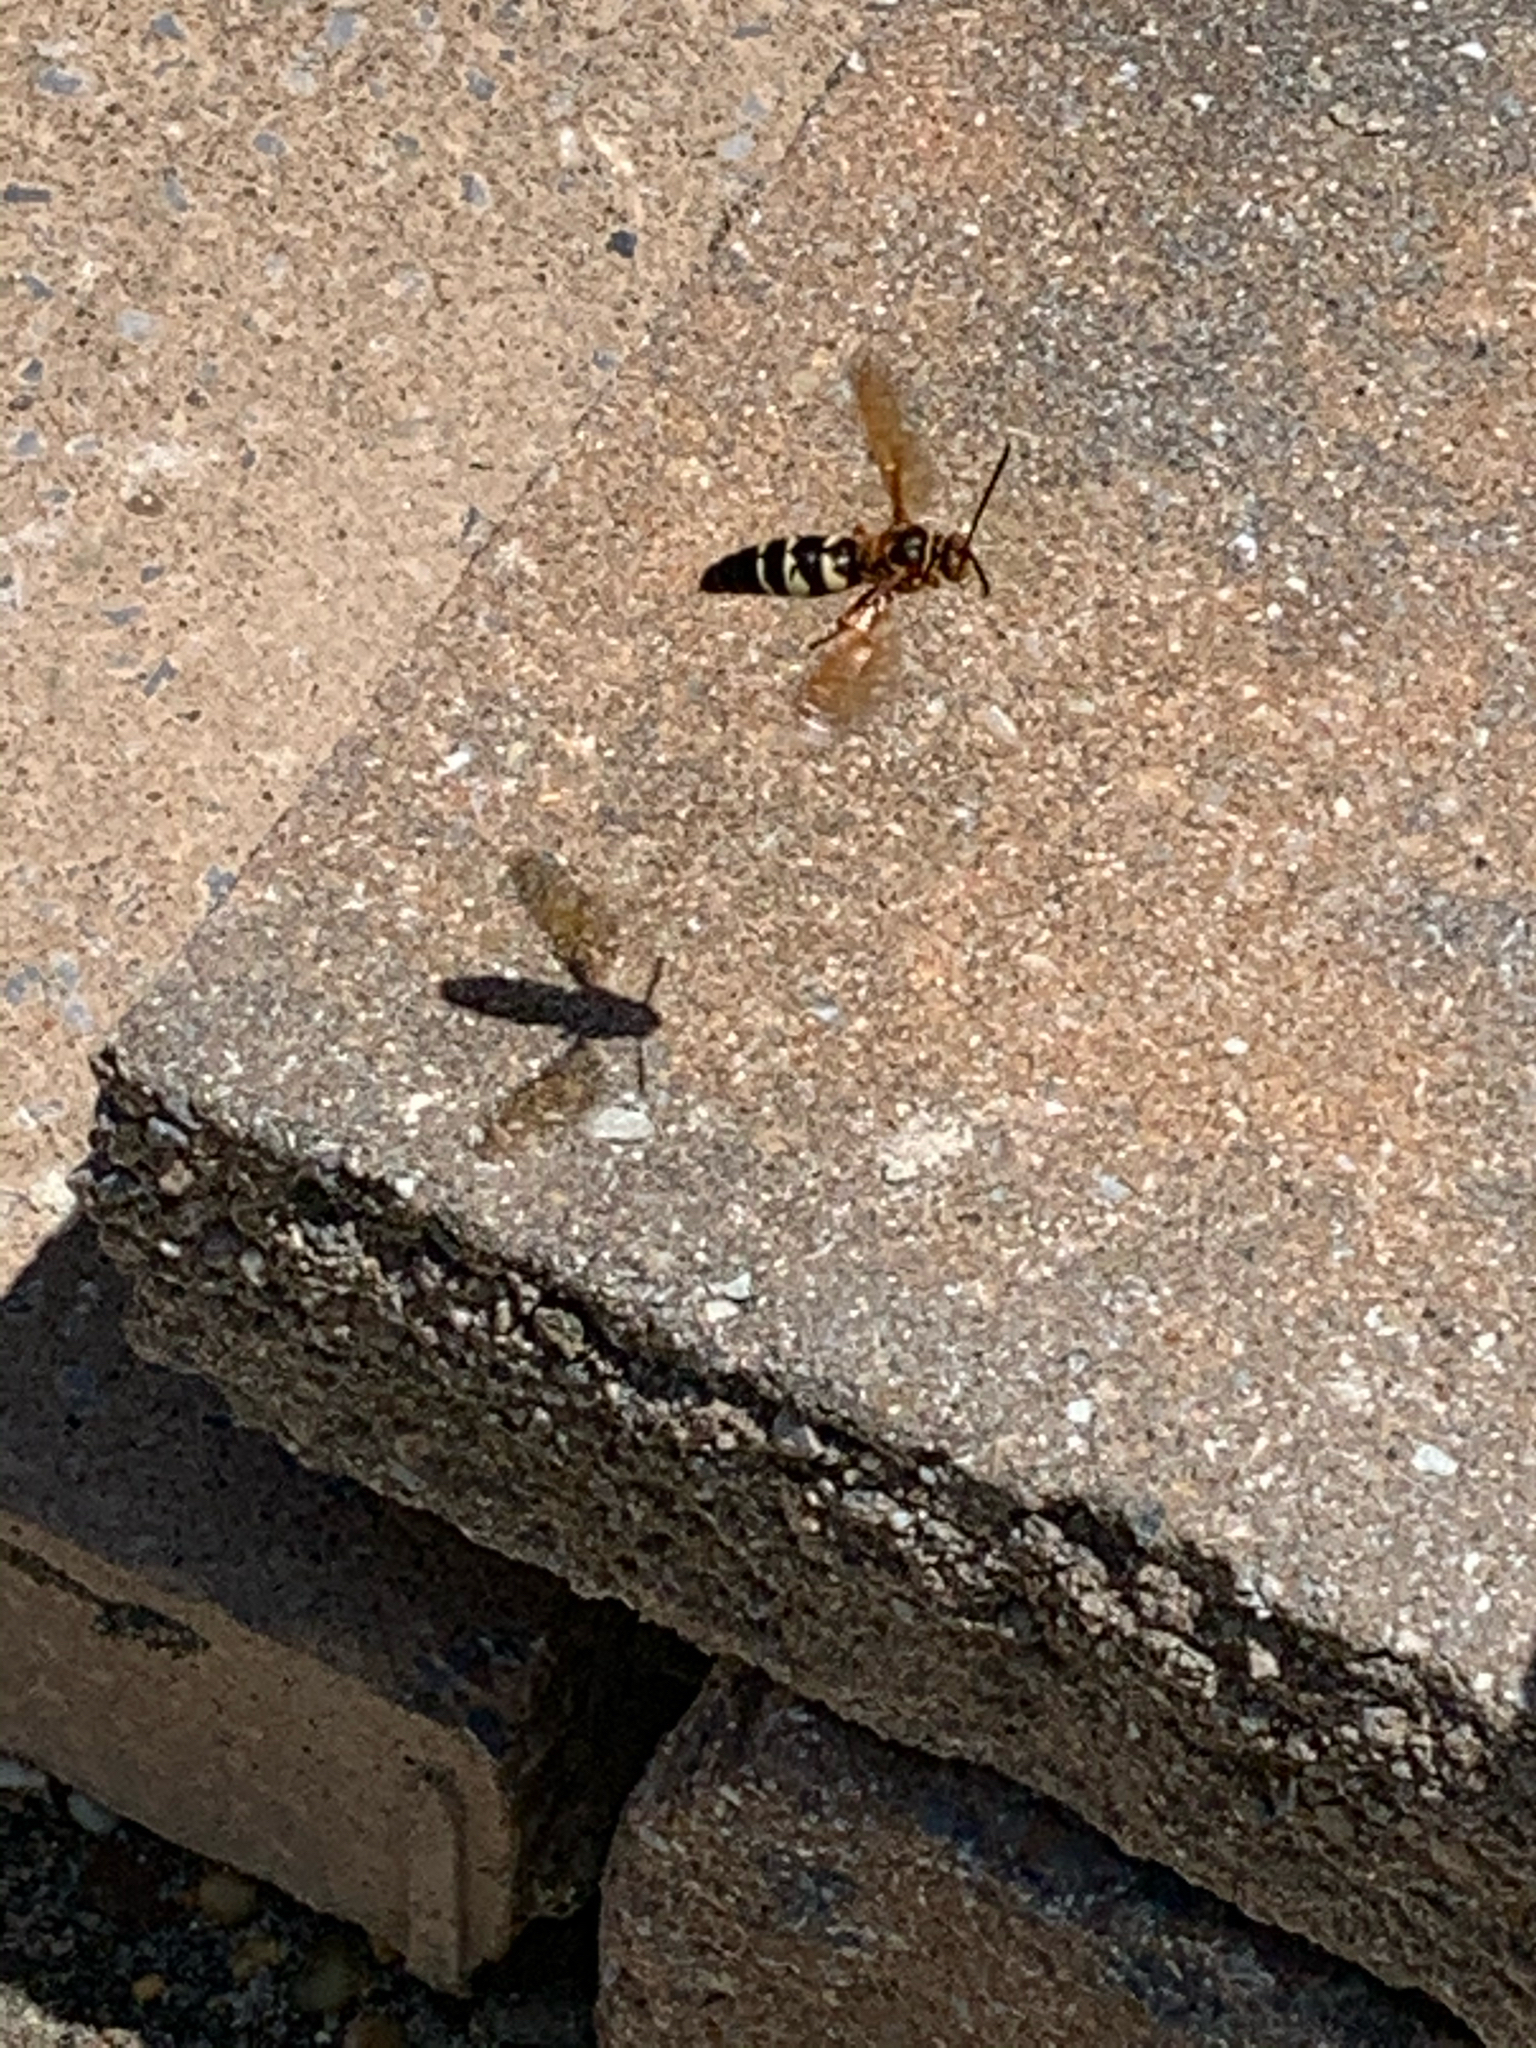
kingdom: Animalia
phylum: Arthropoda
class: Insecta
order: Hymenoptera
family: Crabronidae
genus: Sphecius
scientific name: Sphecius speciosus
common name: Cicada killer
